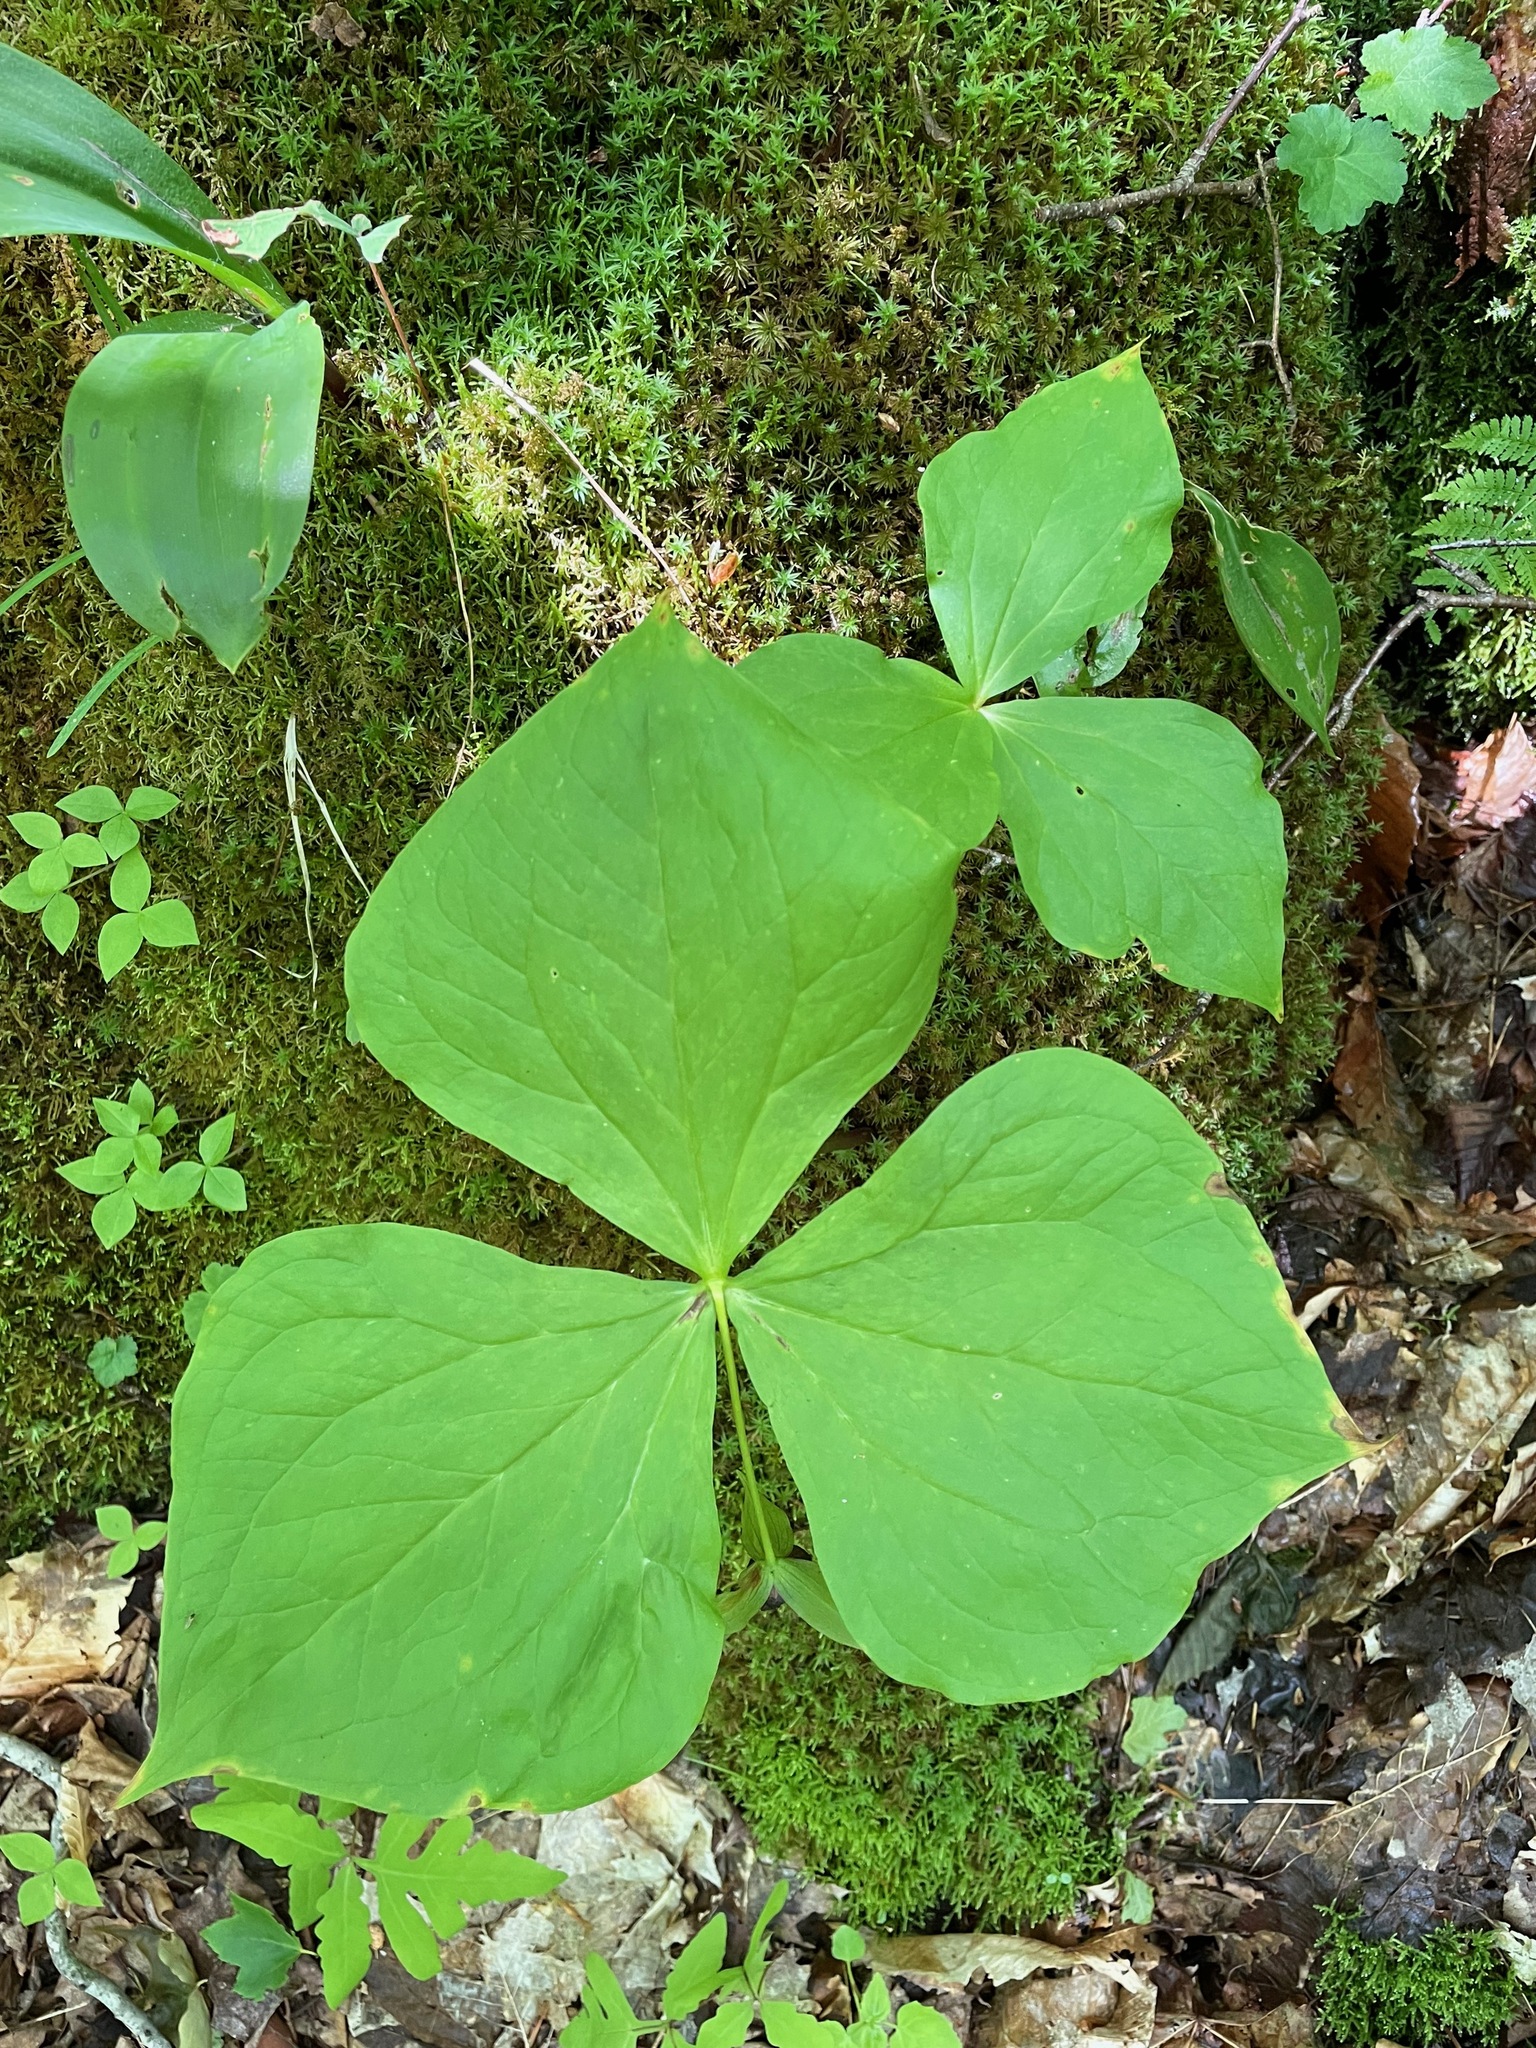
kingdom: Plantae
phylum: Tracheophyta
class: Liliopsida
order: Liliales
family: Melanthiaceae
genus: Trillium
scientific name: Trillium erectum
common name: Purple trillium
